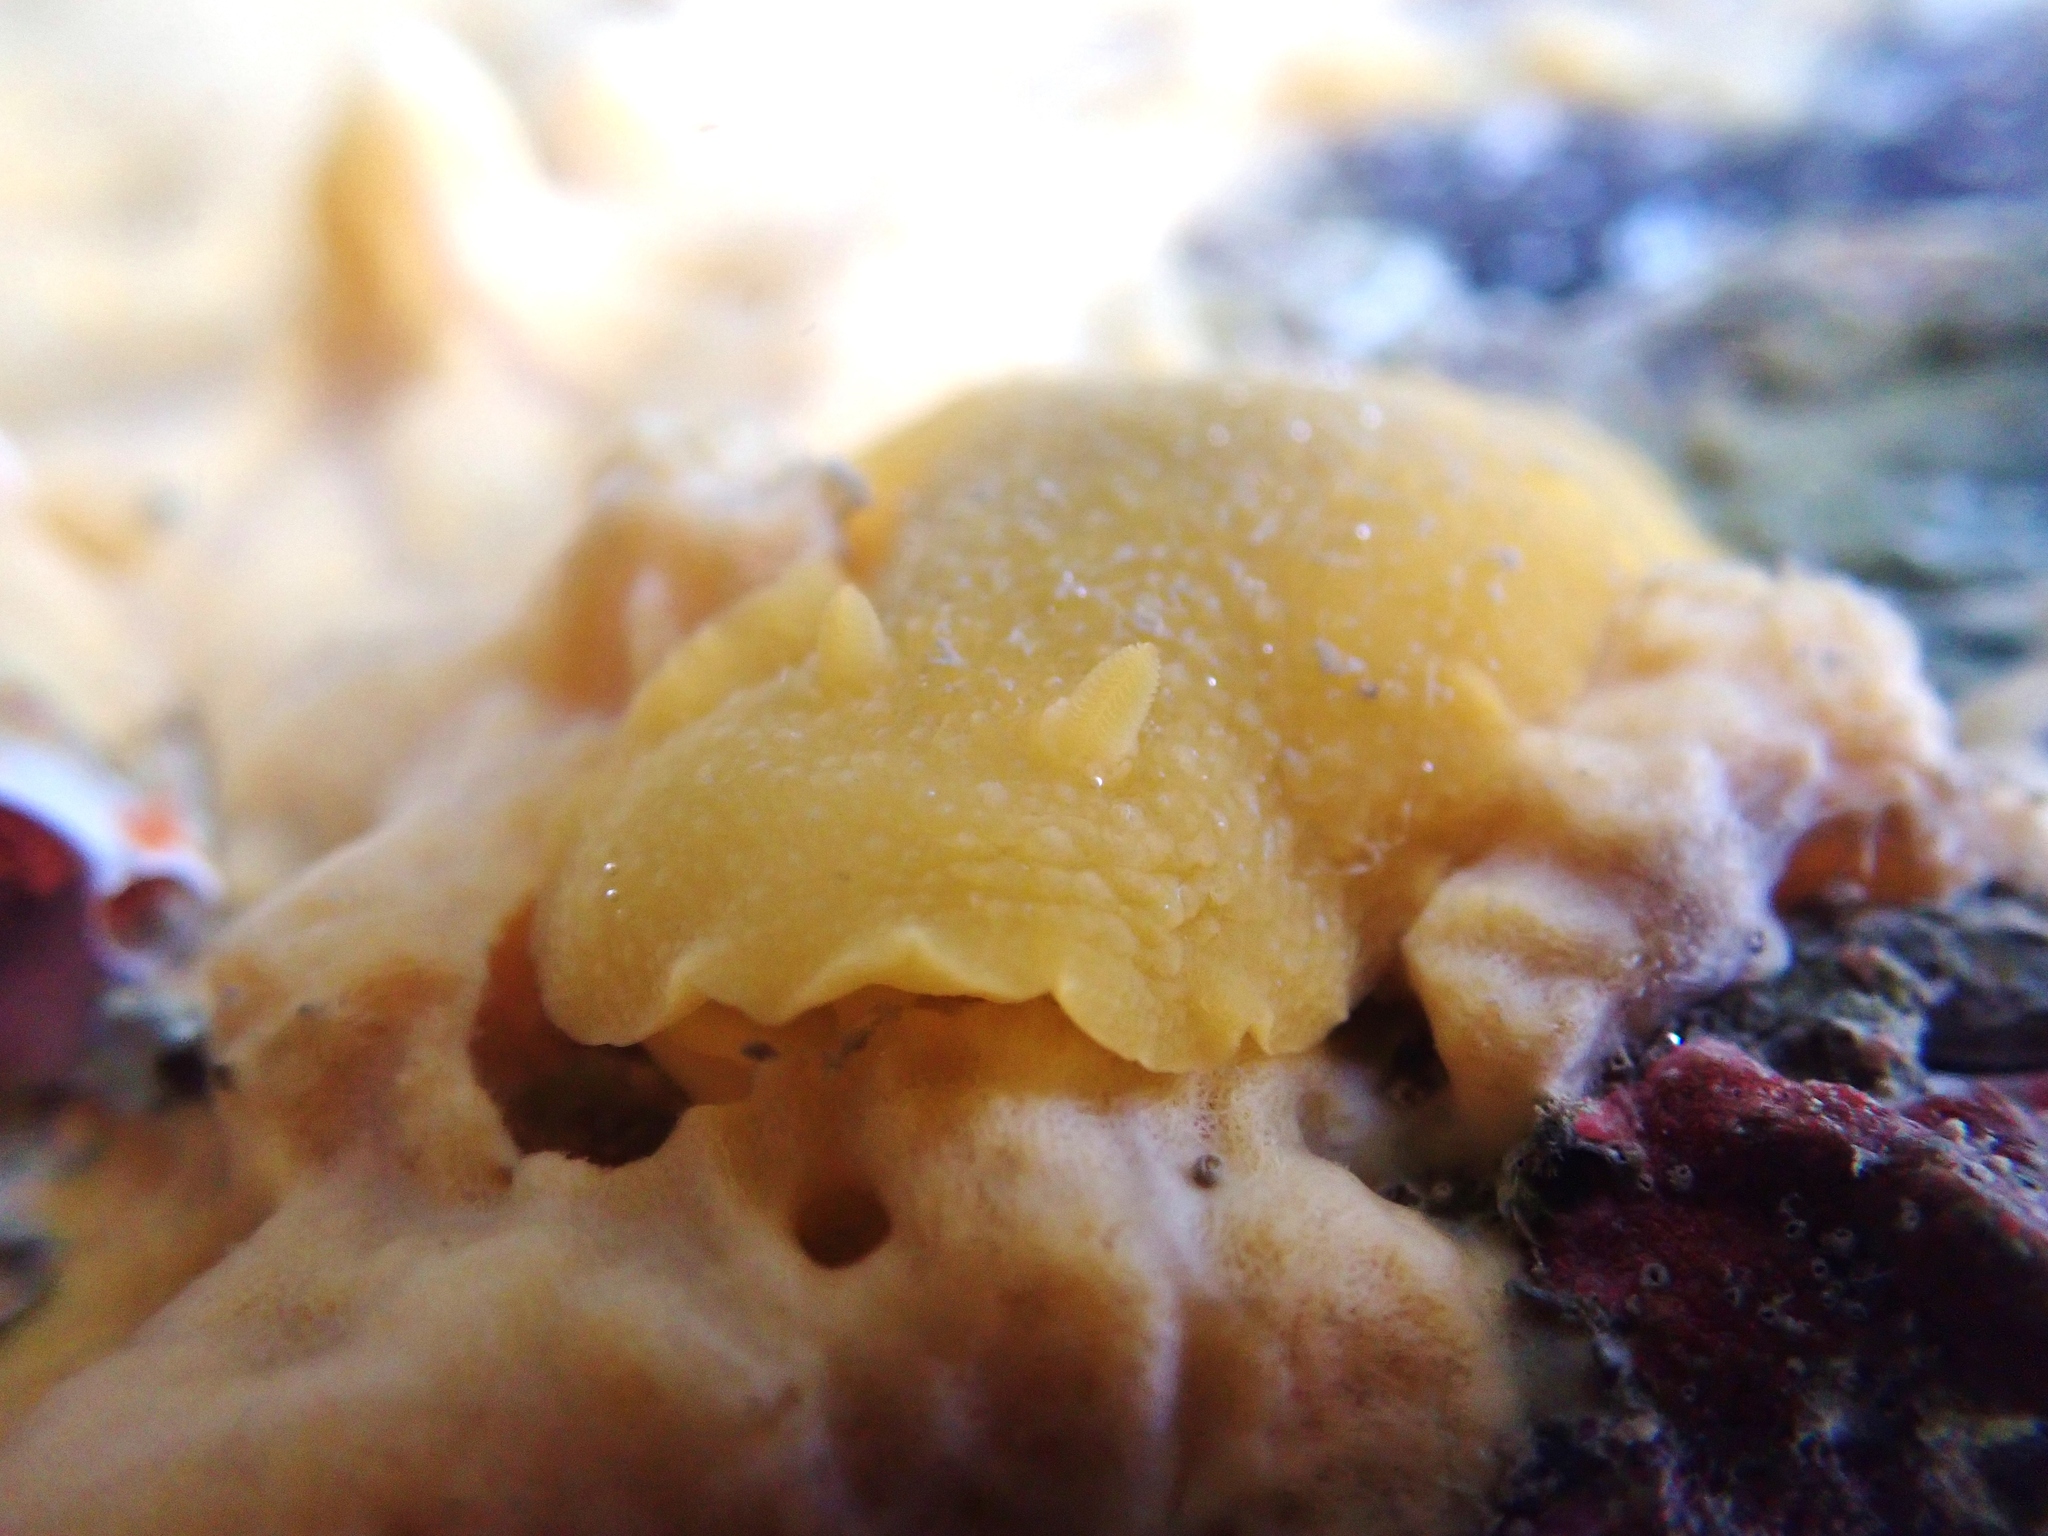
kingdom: Animalia
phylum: Mollusca
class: Gastropoda
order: Nudibranchia
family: Dorididae
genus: Doriopsis
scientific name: Doriopsis granulosa
